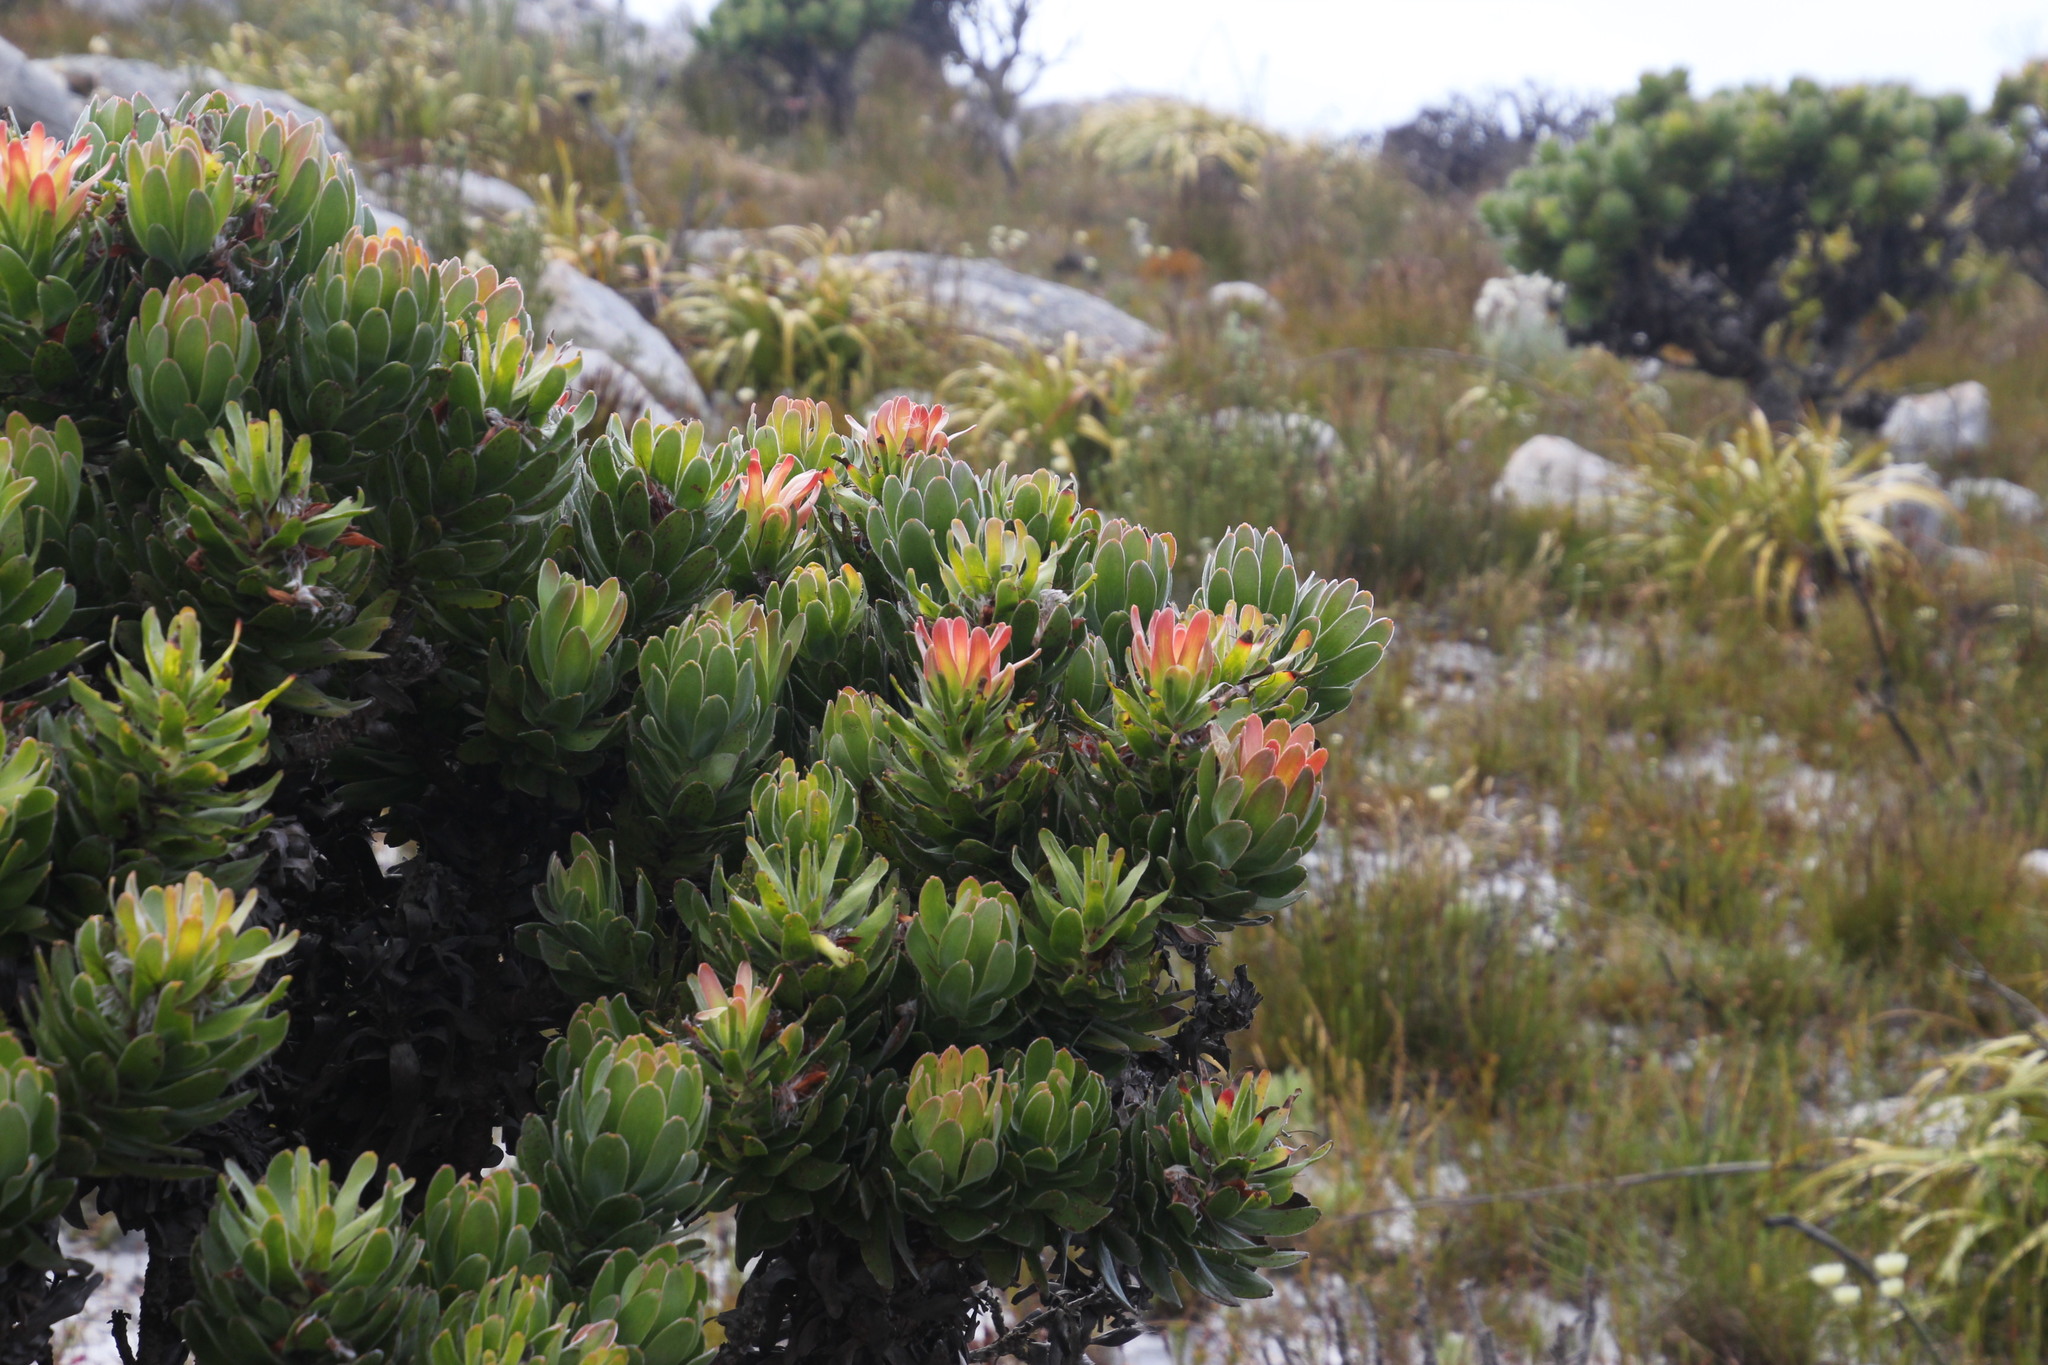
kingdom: Plantae
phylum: Tracheophyta
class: Magnoliopsida
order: Proteales
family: Proteaceae
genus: Mimetes
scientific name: Mimetes fimbriifolius
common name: Fringed bottlebrush
